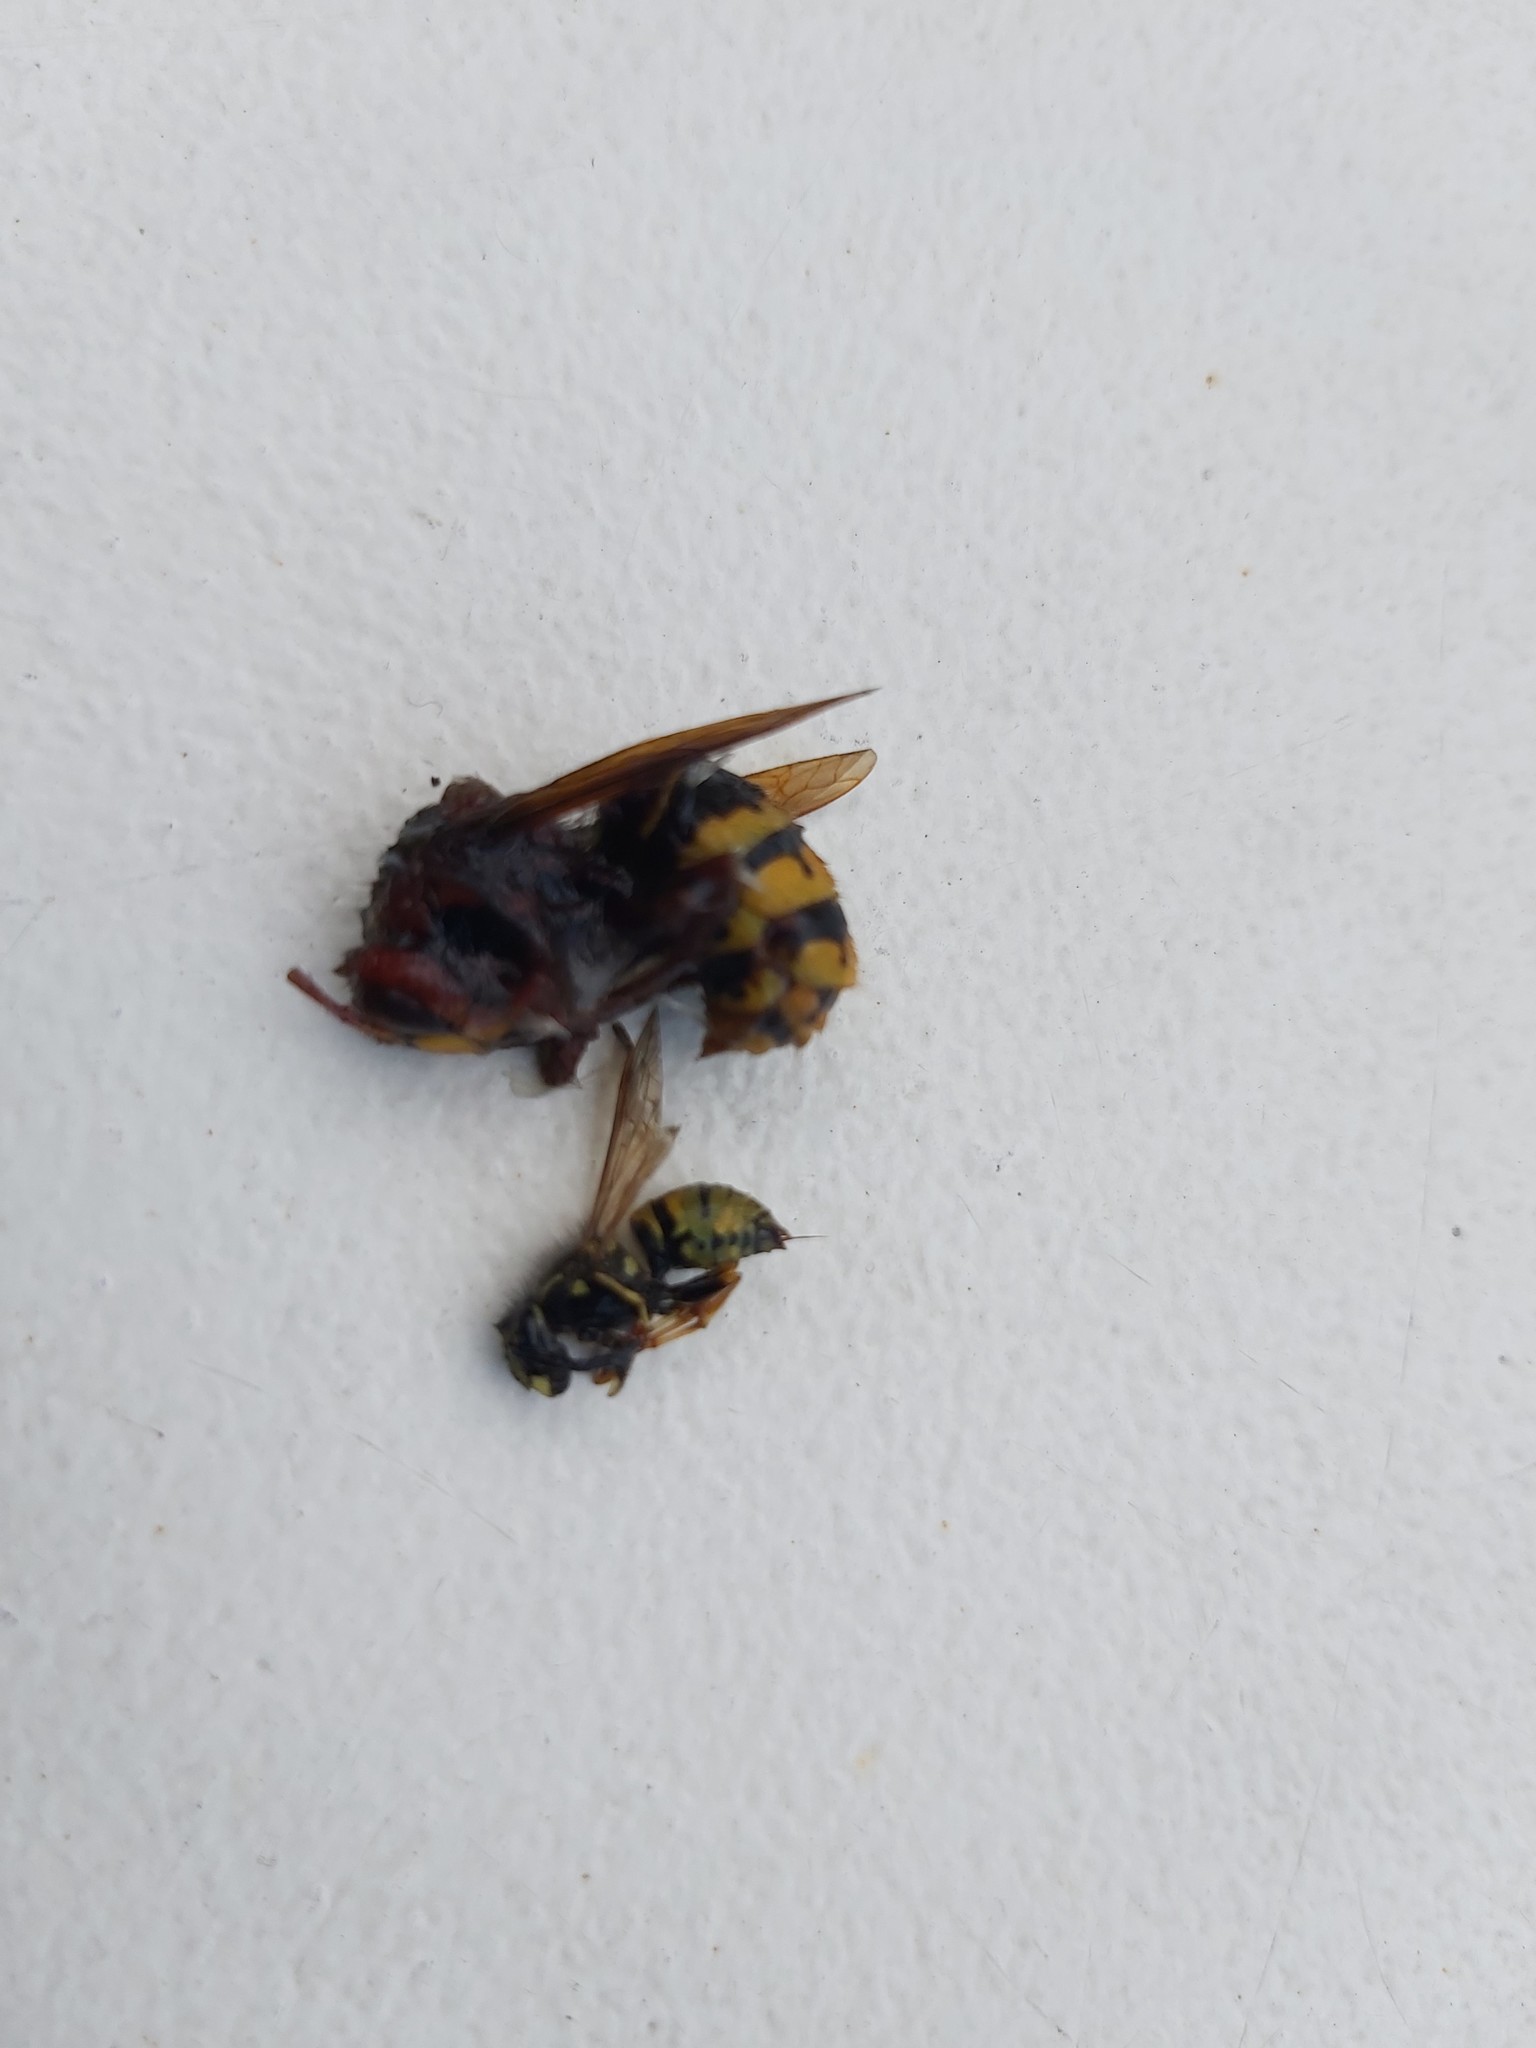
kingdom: Animalia
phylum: Arthropoda
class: Insecta
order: Hymenoptera
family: Vespidae
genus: Vespa
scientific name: Vespa crabro
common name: Hornet
